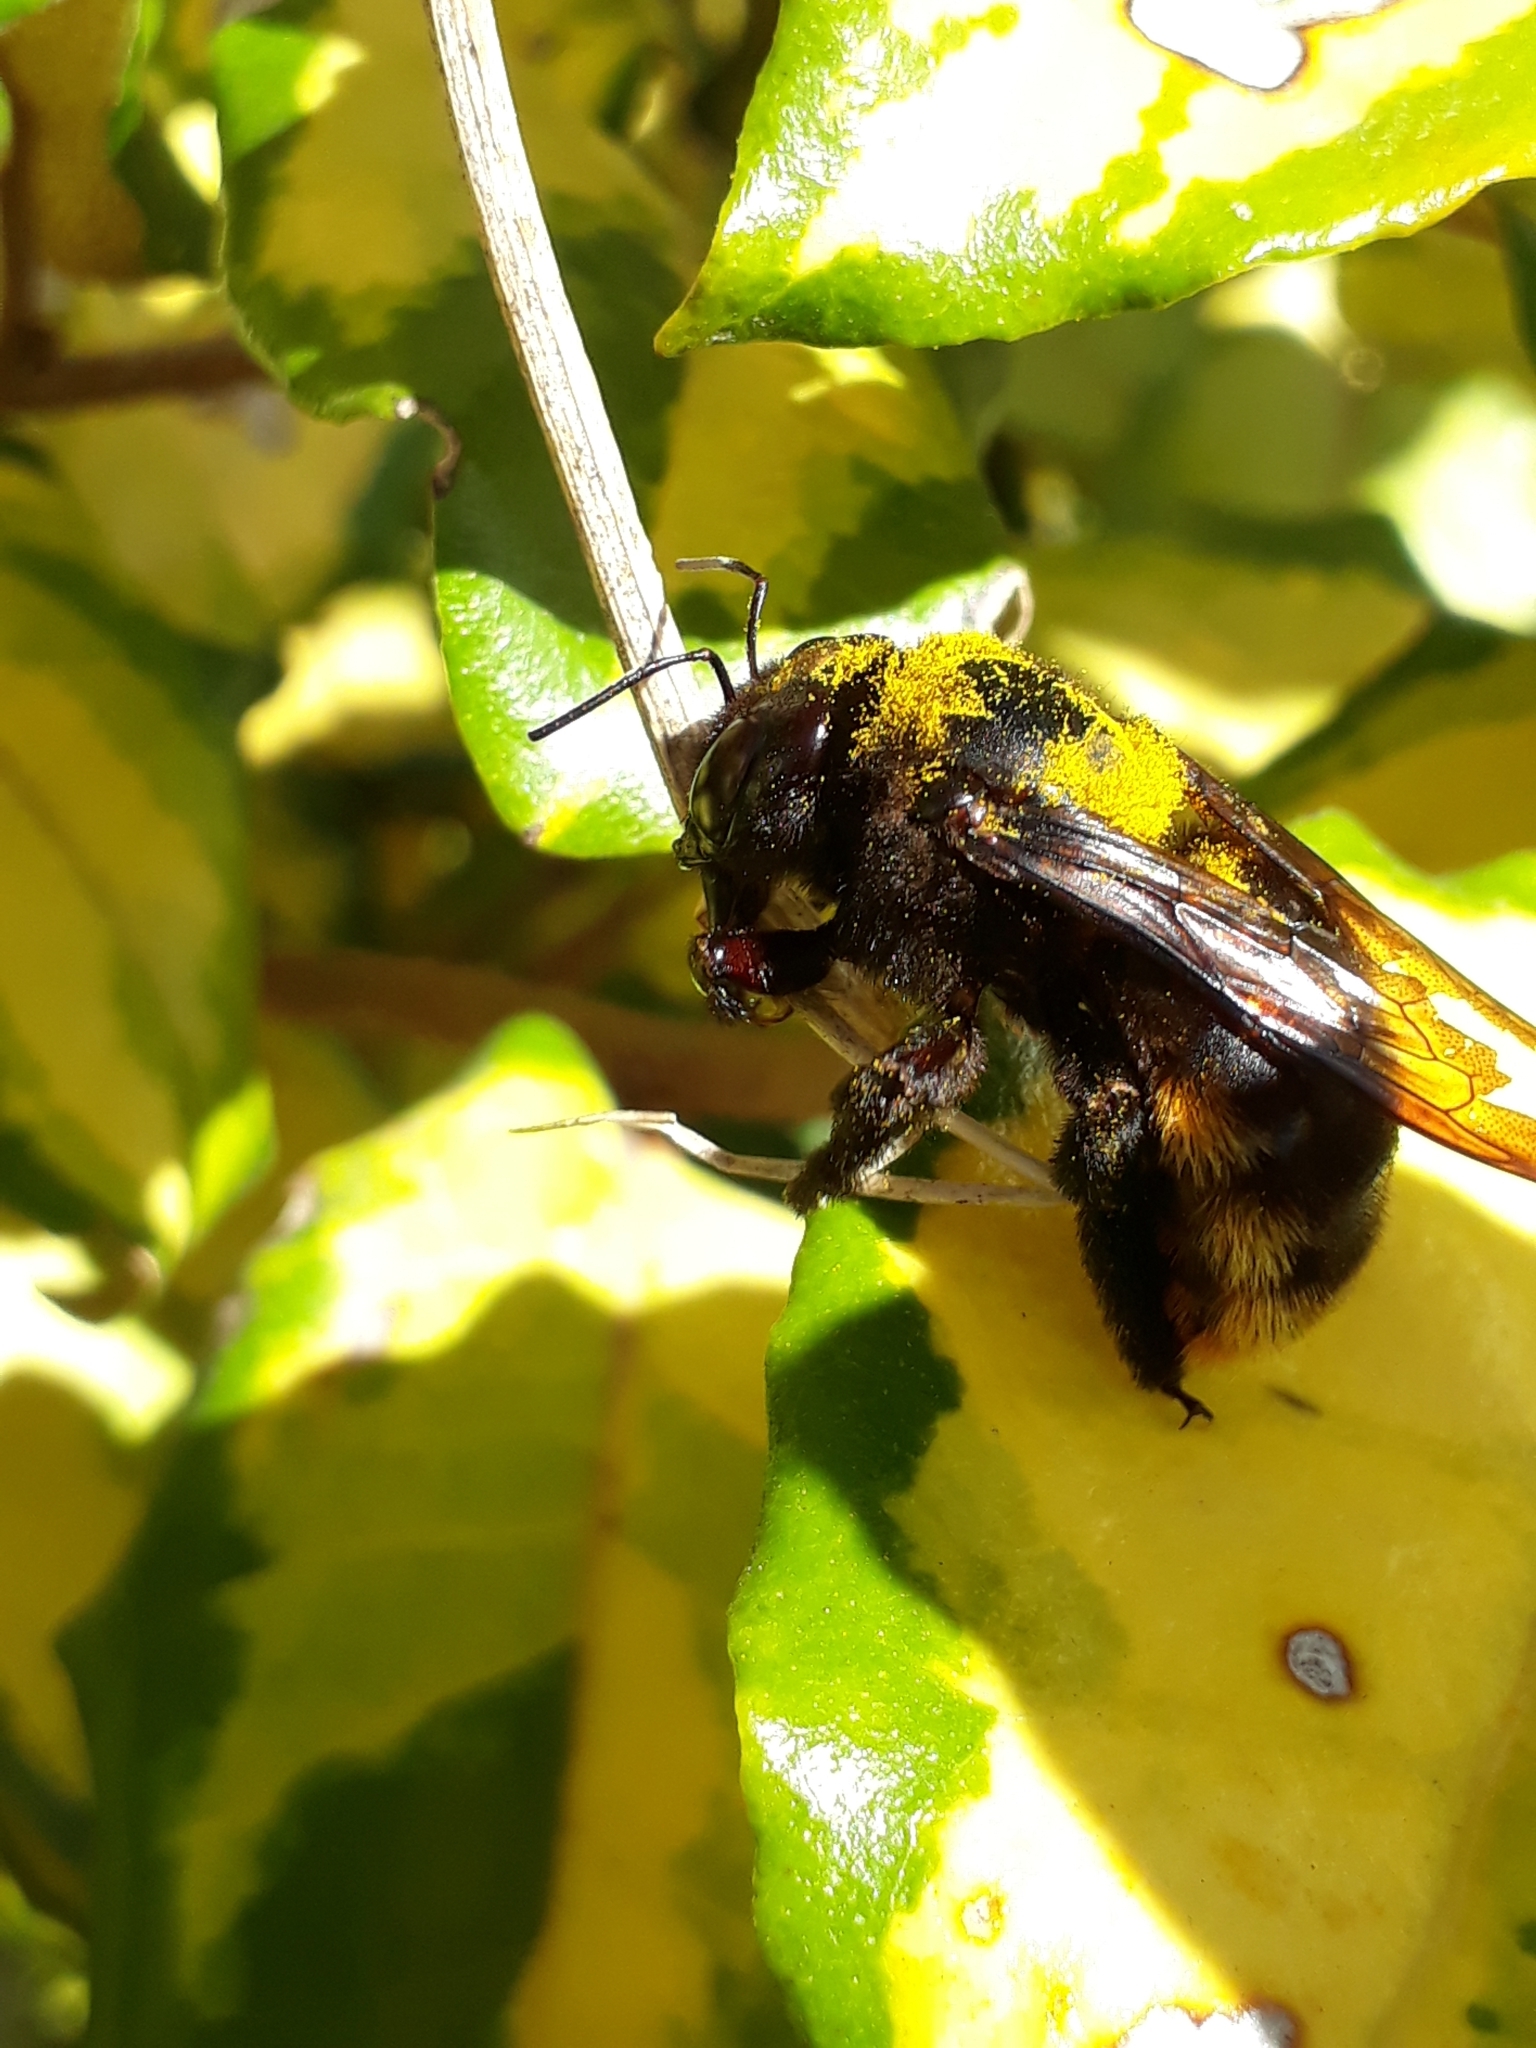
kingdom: Animalia
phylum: Arthropoda
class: Insecta
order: Hymenoptera
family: Apidae
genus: Xylocopa
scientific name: Xylocopa augusti
